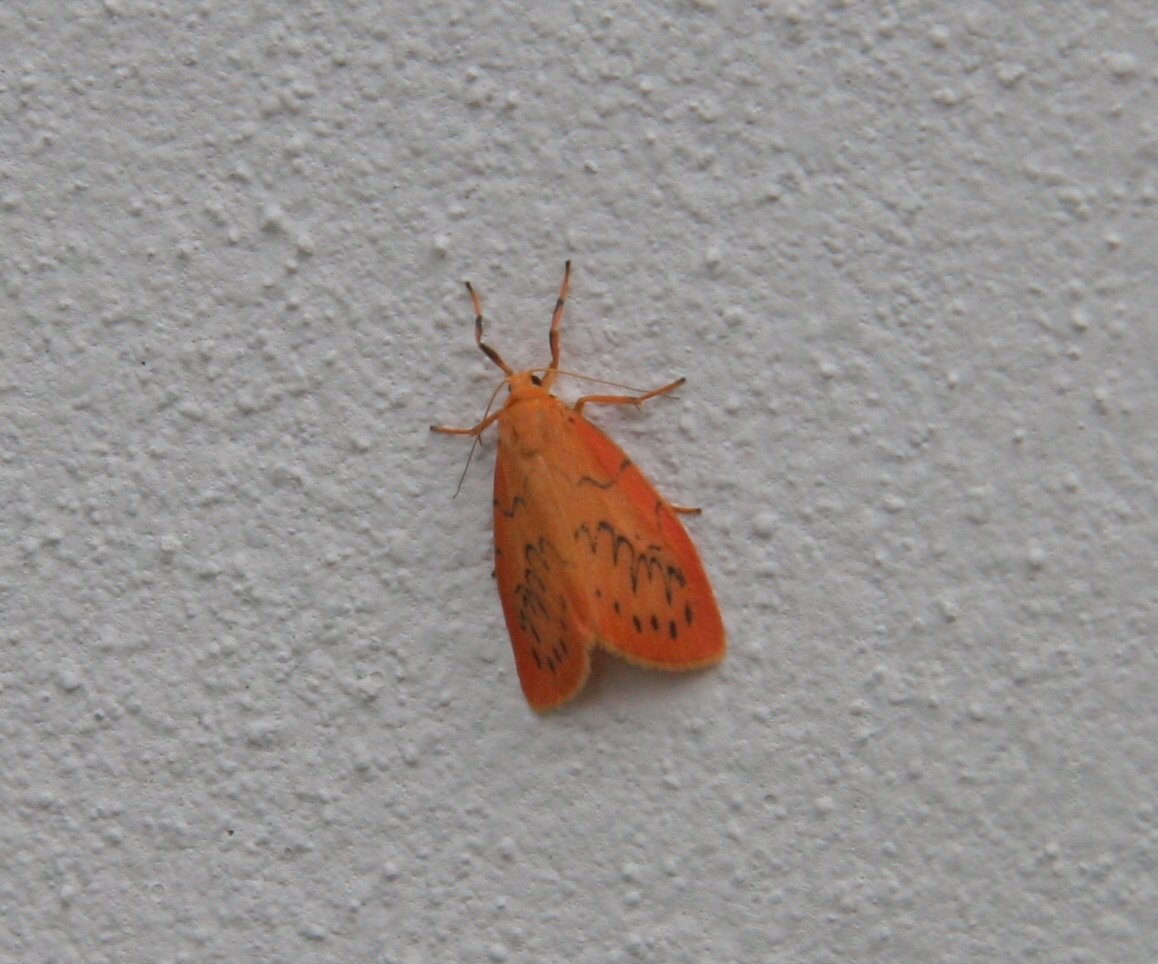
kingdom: Animalia
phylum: Arthropoda
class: Insecta
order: Lepidoptera
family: Erebidae
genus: Miltochrista
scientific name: Miltochrista miniata
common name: Rosy footman
